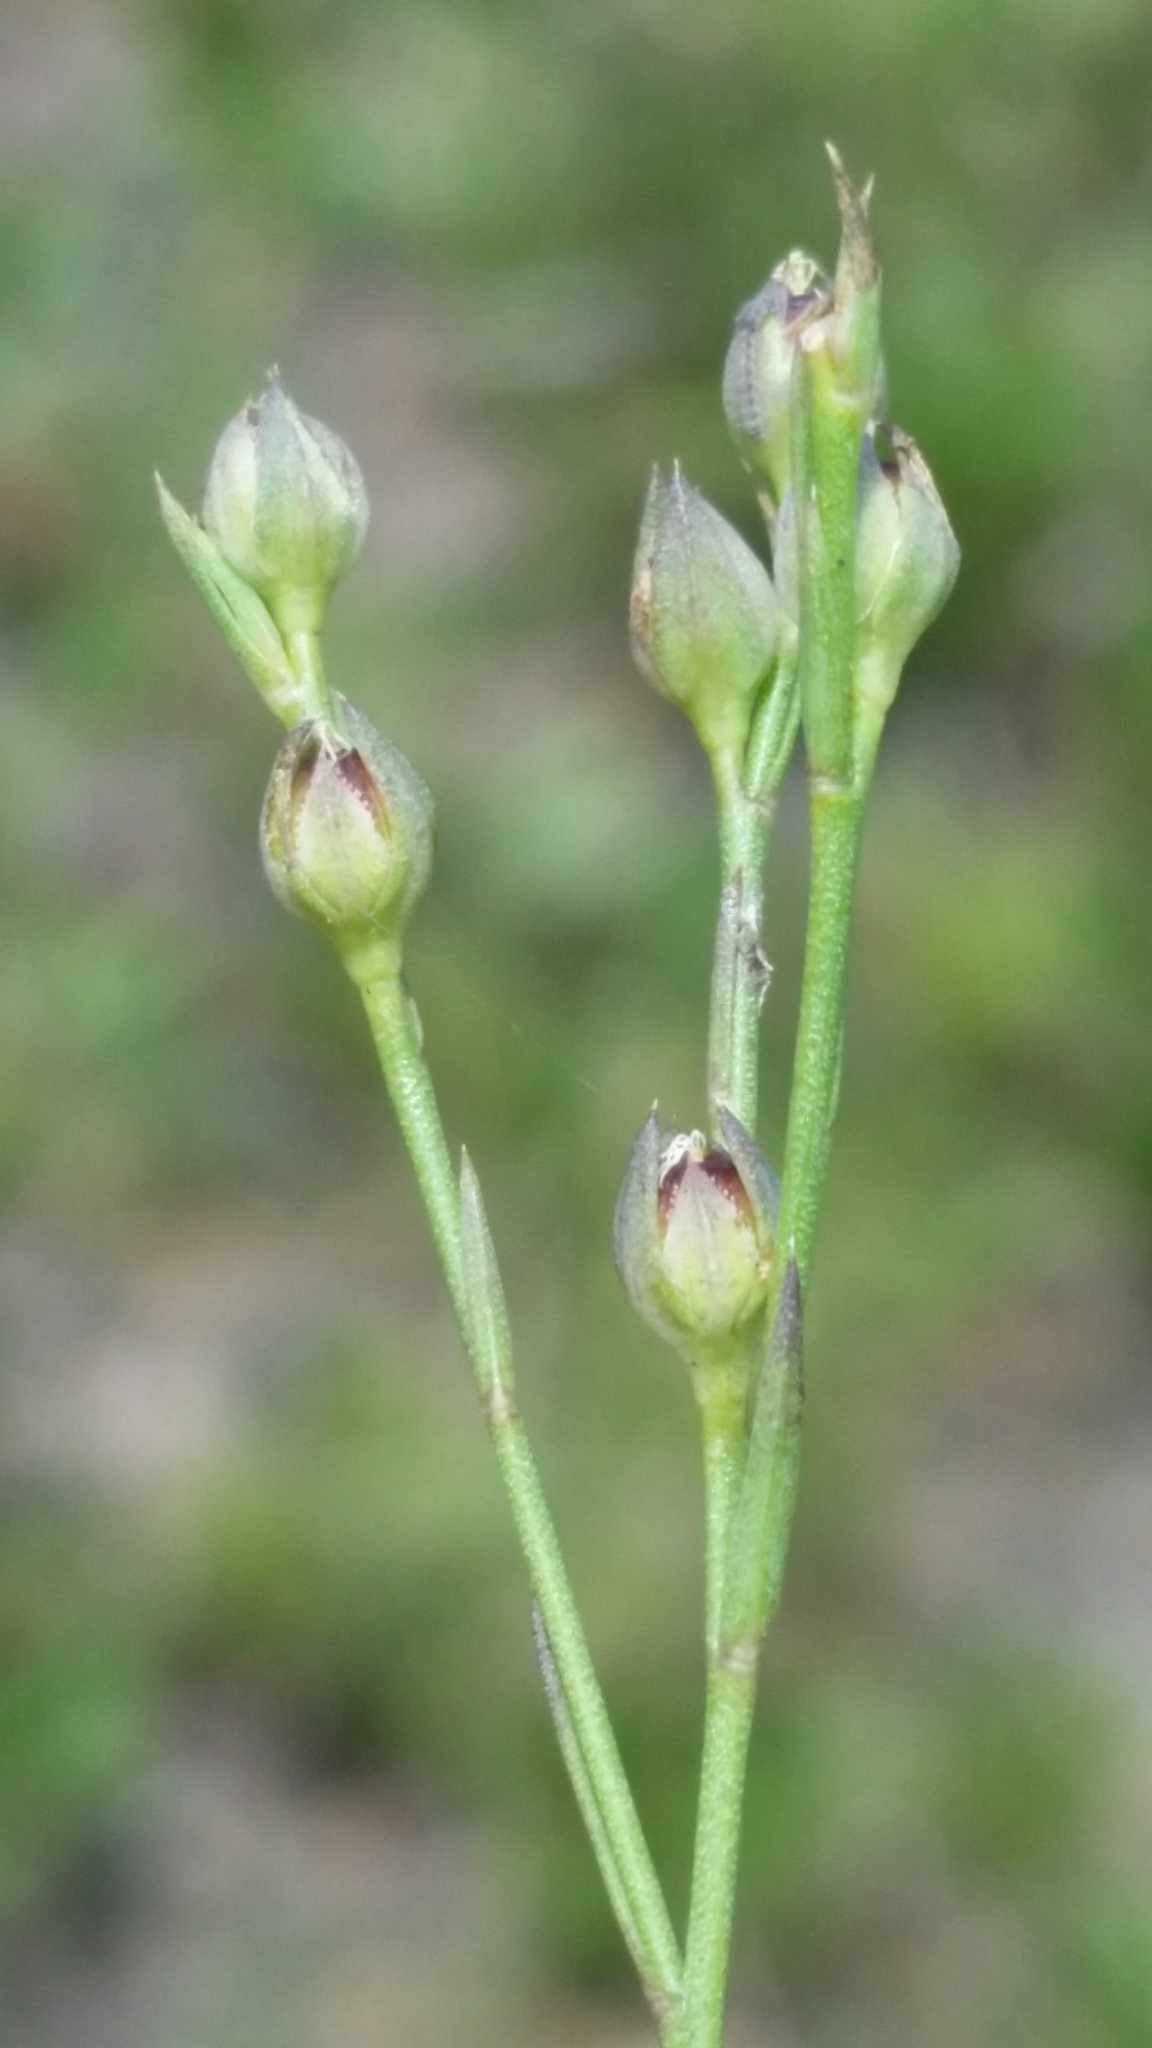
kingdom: Plantae
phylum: Tracheophyta
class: Magnoliopsida
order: Malpighiales
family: Linaceae
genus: Linum
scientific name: Linum floridanum
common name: Florida yellow flax
